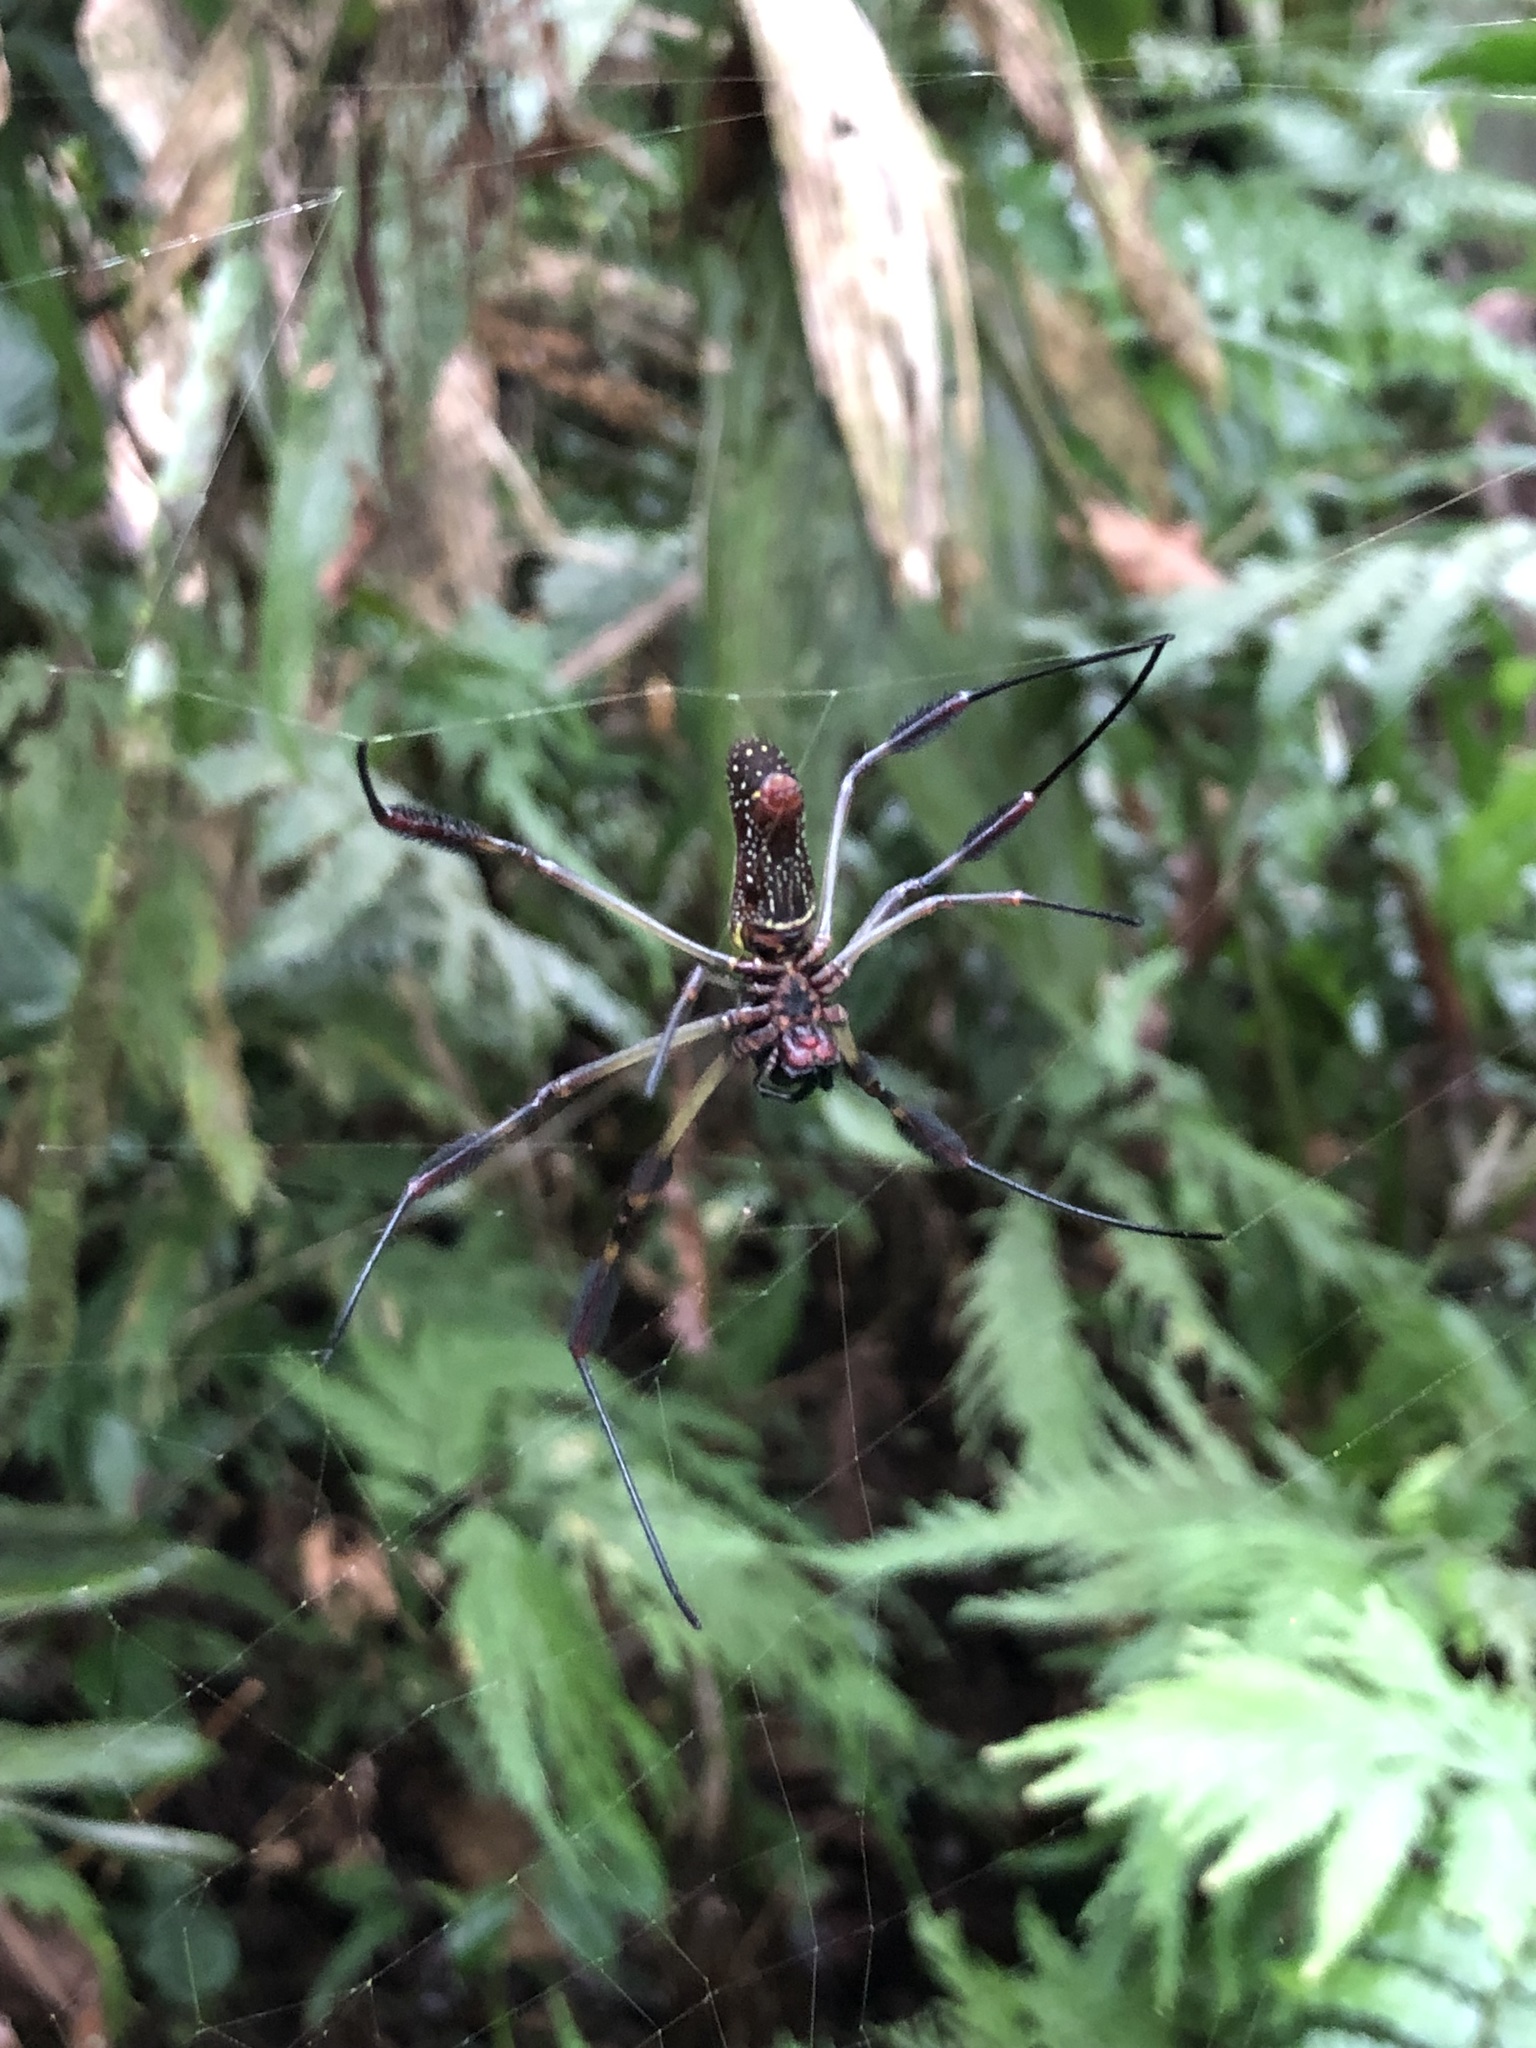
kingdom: Animalia
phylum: Arthropoda
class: Arachnida
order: Araneae
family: Araneidae
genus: Trichonephila
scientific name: Trichonephila clavipes
